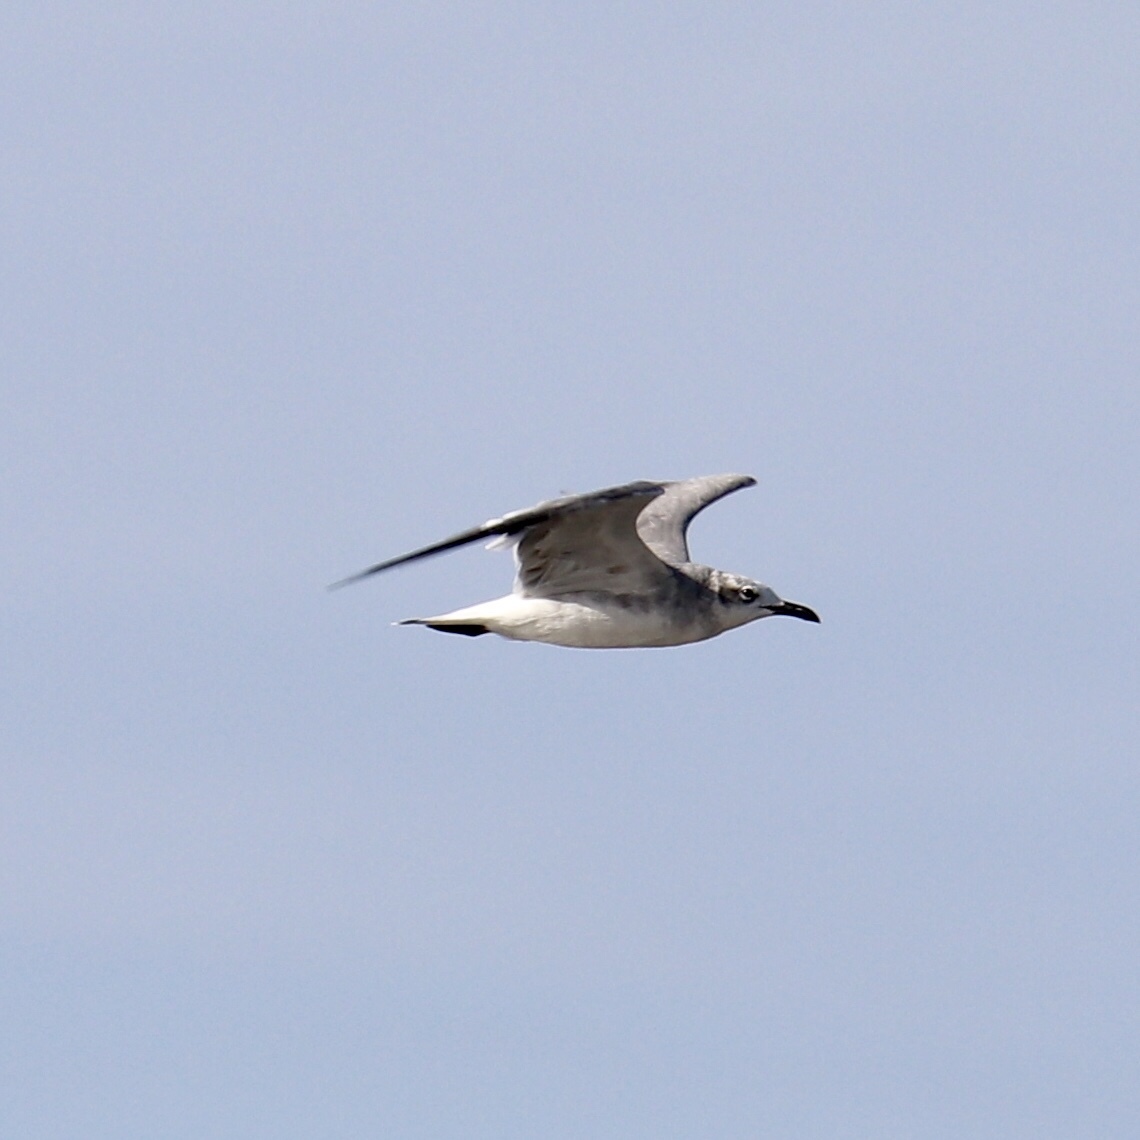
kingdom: Animalia
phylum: Chordata
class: Aves
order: Charadriiformes
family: Laridae
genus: Leucophaeus
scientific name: Leucophaeus atricilla
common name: Laughing gull
